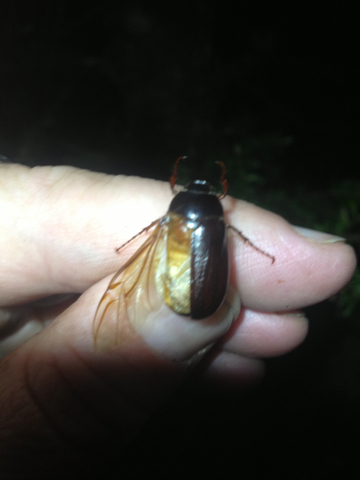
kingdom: Animalia
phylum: Arthropoda
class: Insecta
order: Coleoptera
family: Scarabaeidae
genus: Phyllophaga
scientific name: Phyllophaga
